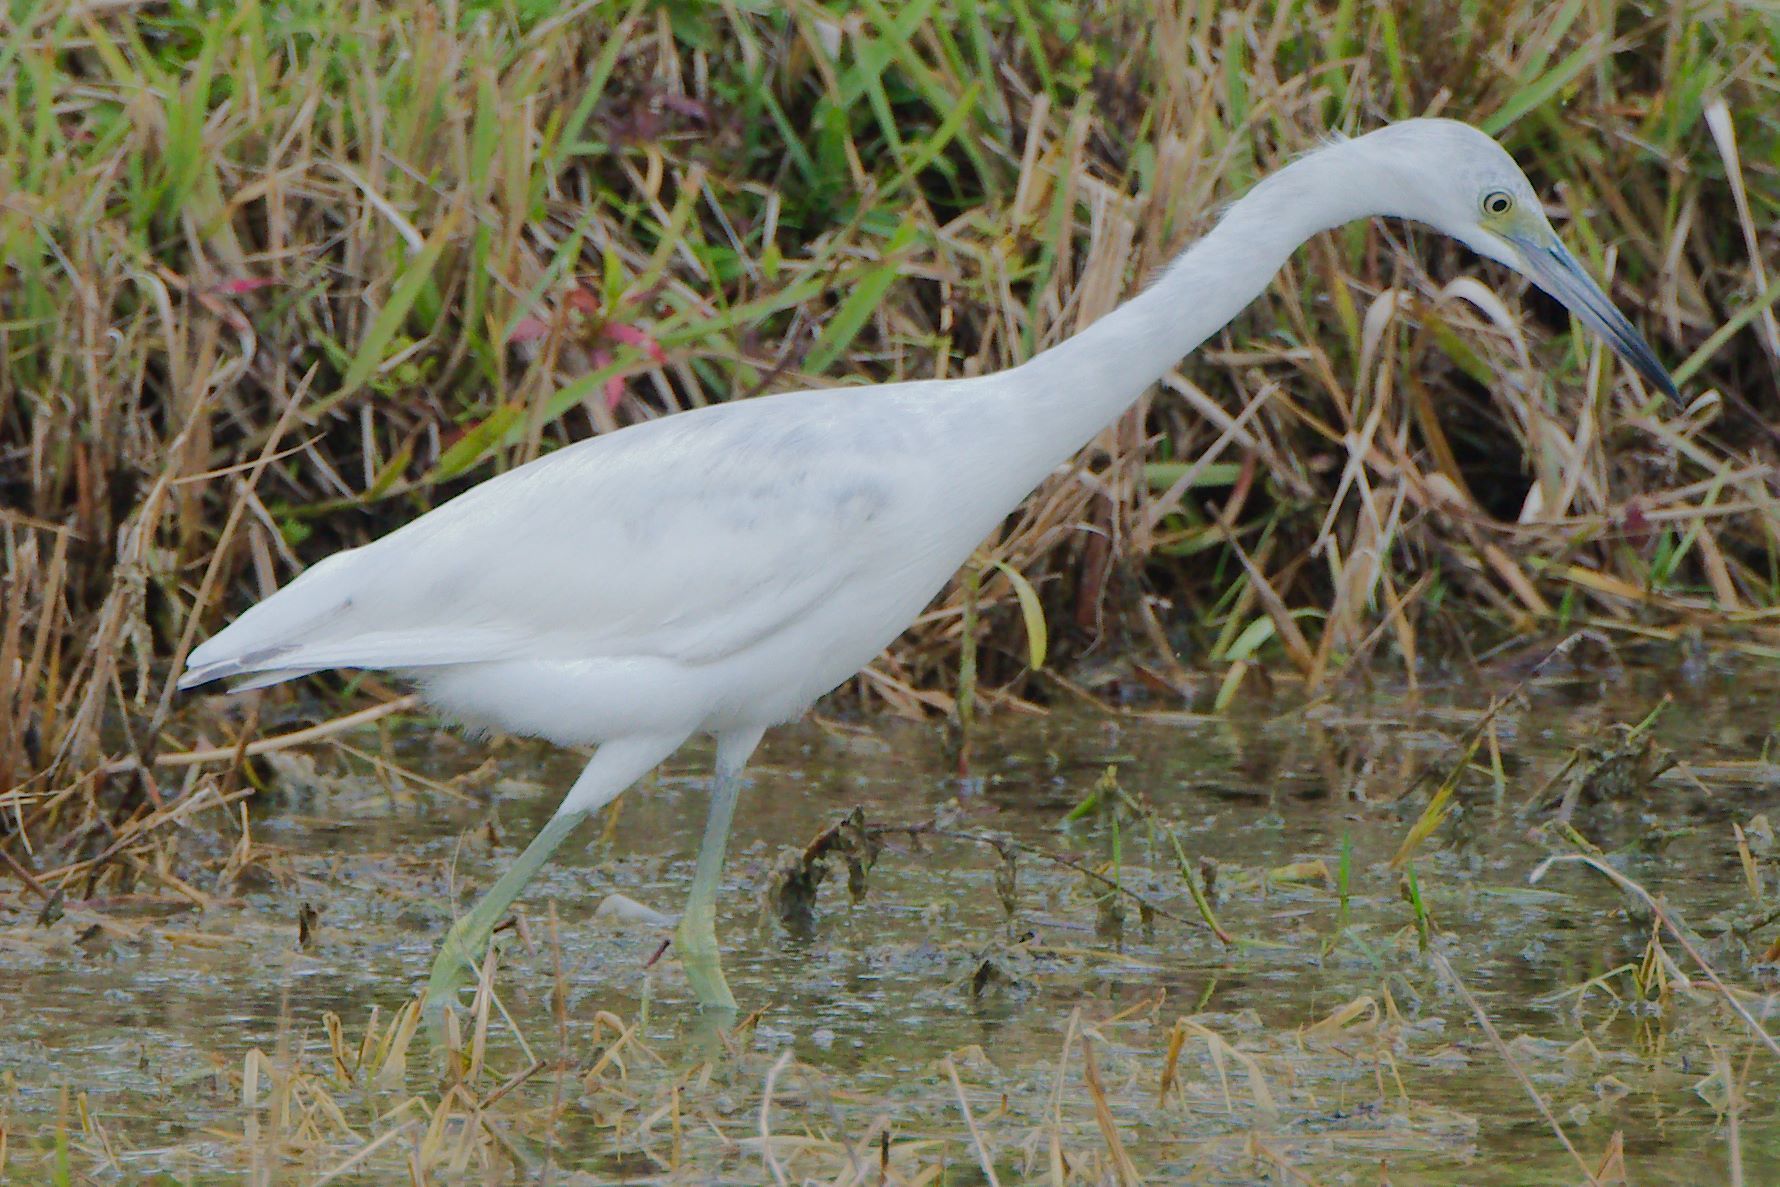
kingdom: Animalia
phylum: Chordata
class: Aves
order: Pelecaniformes
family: Ardeidae
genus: Egretta
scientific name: Egretta caerulea
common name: Little blue heron
